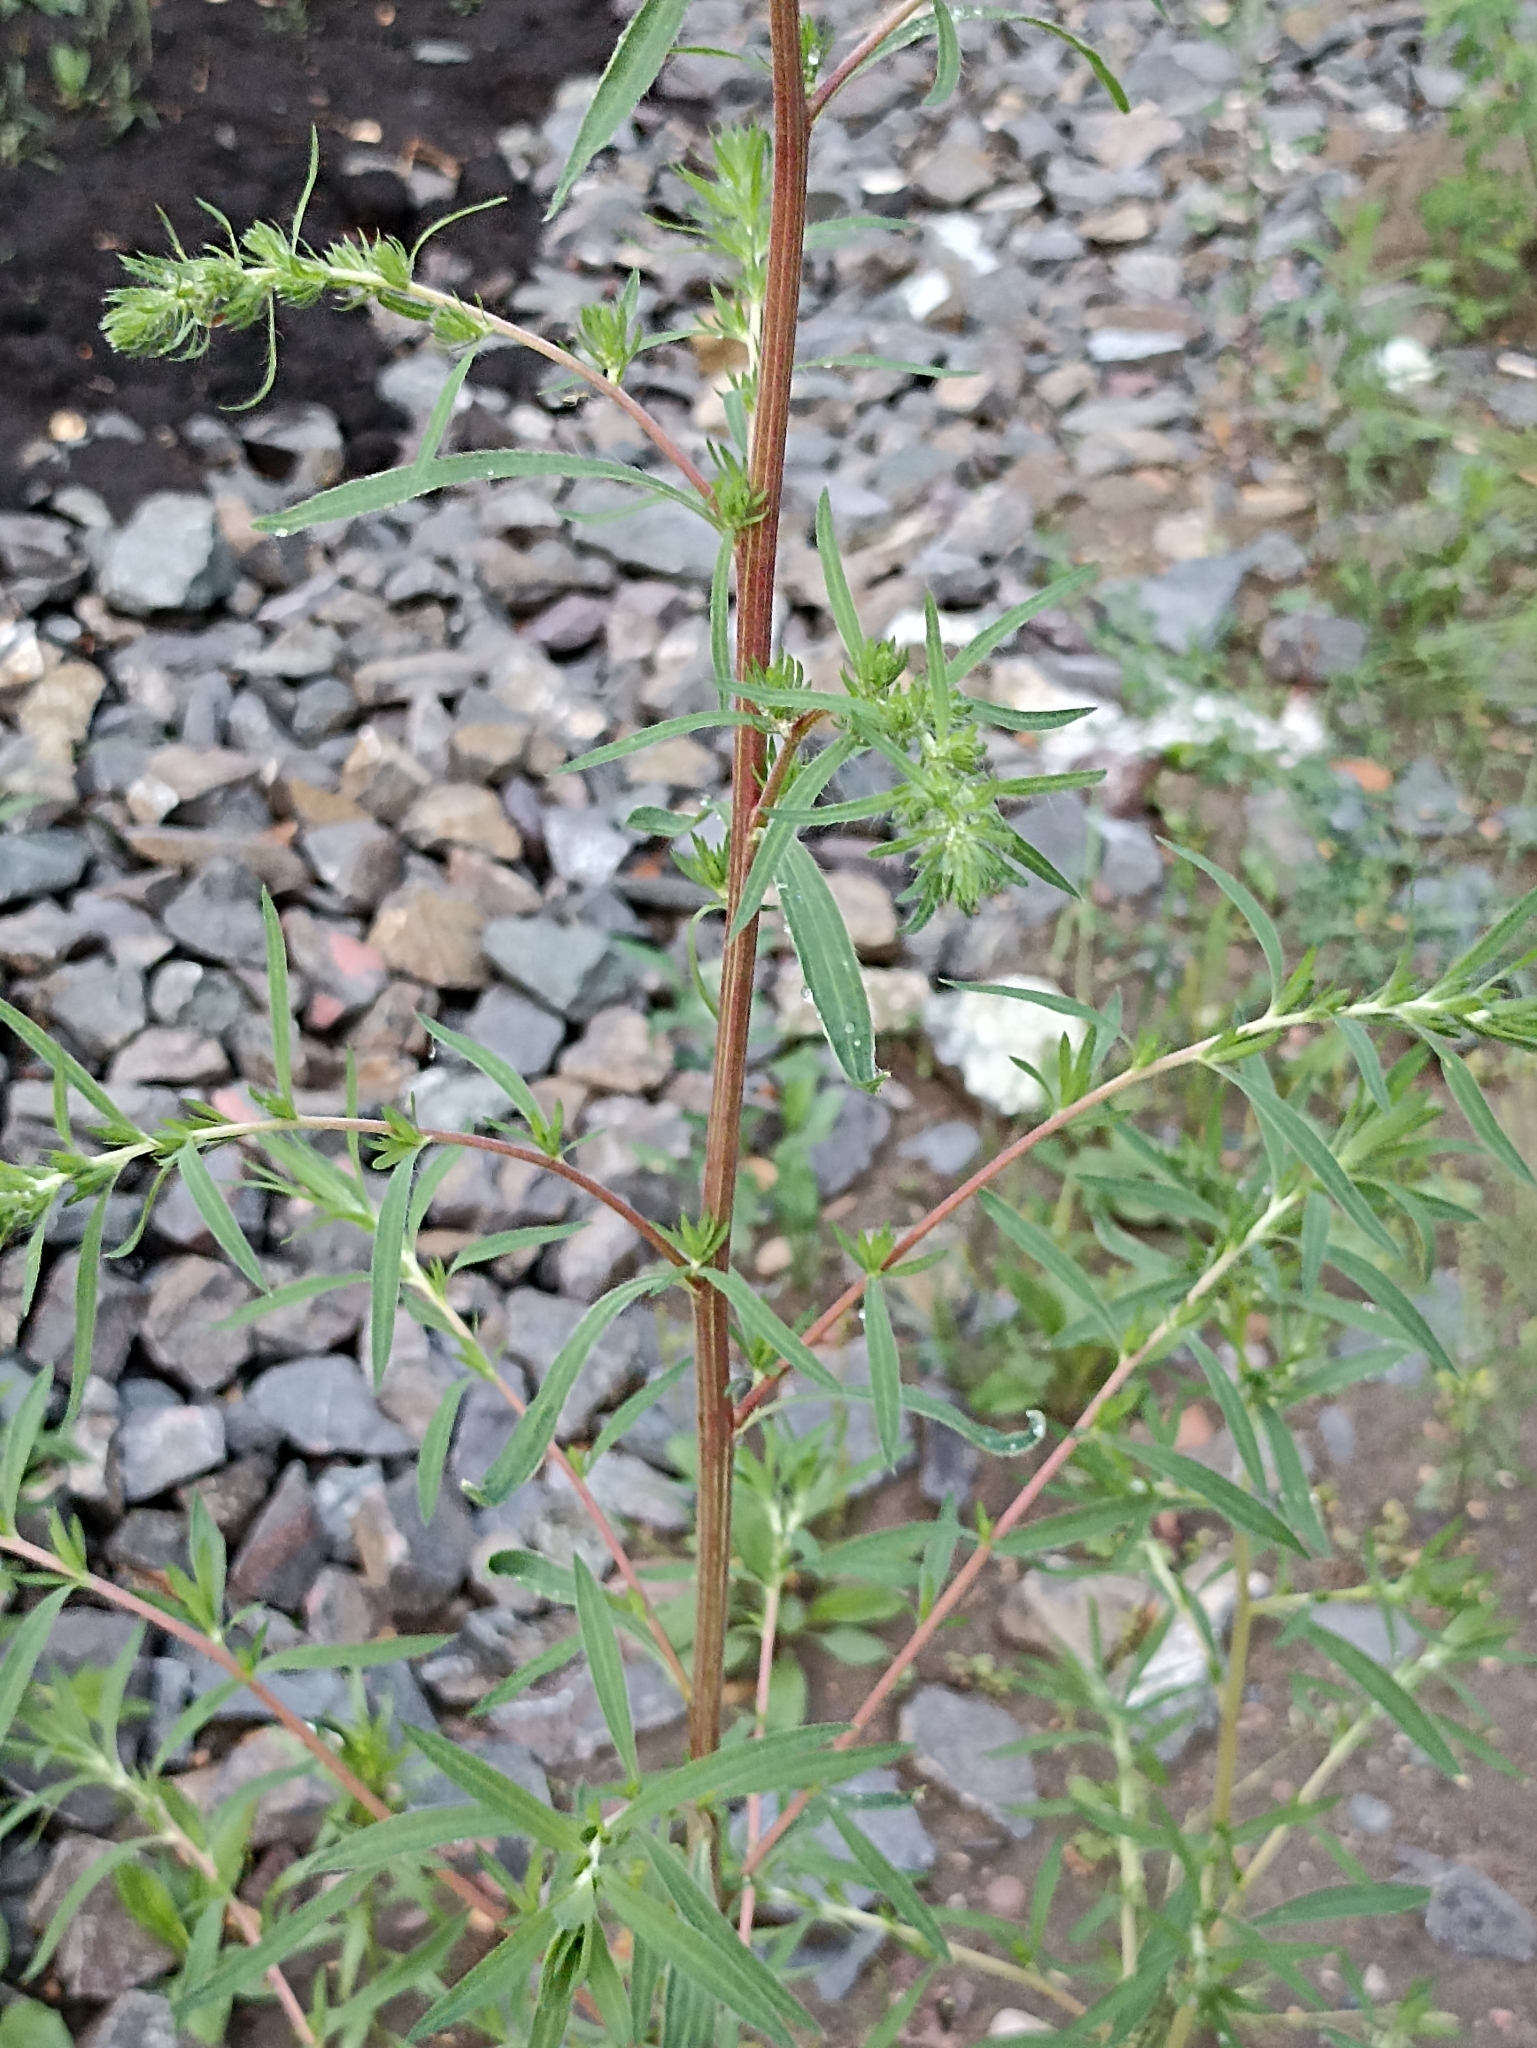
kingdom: Plantae
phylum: Tracheophyta
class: Magnoliopsida
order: Caryophyllales
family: Amaranthaceae
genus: Bassia
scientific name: Bassia scoparia
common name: Belvedere
